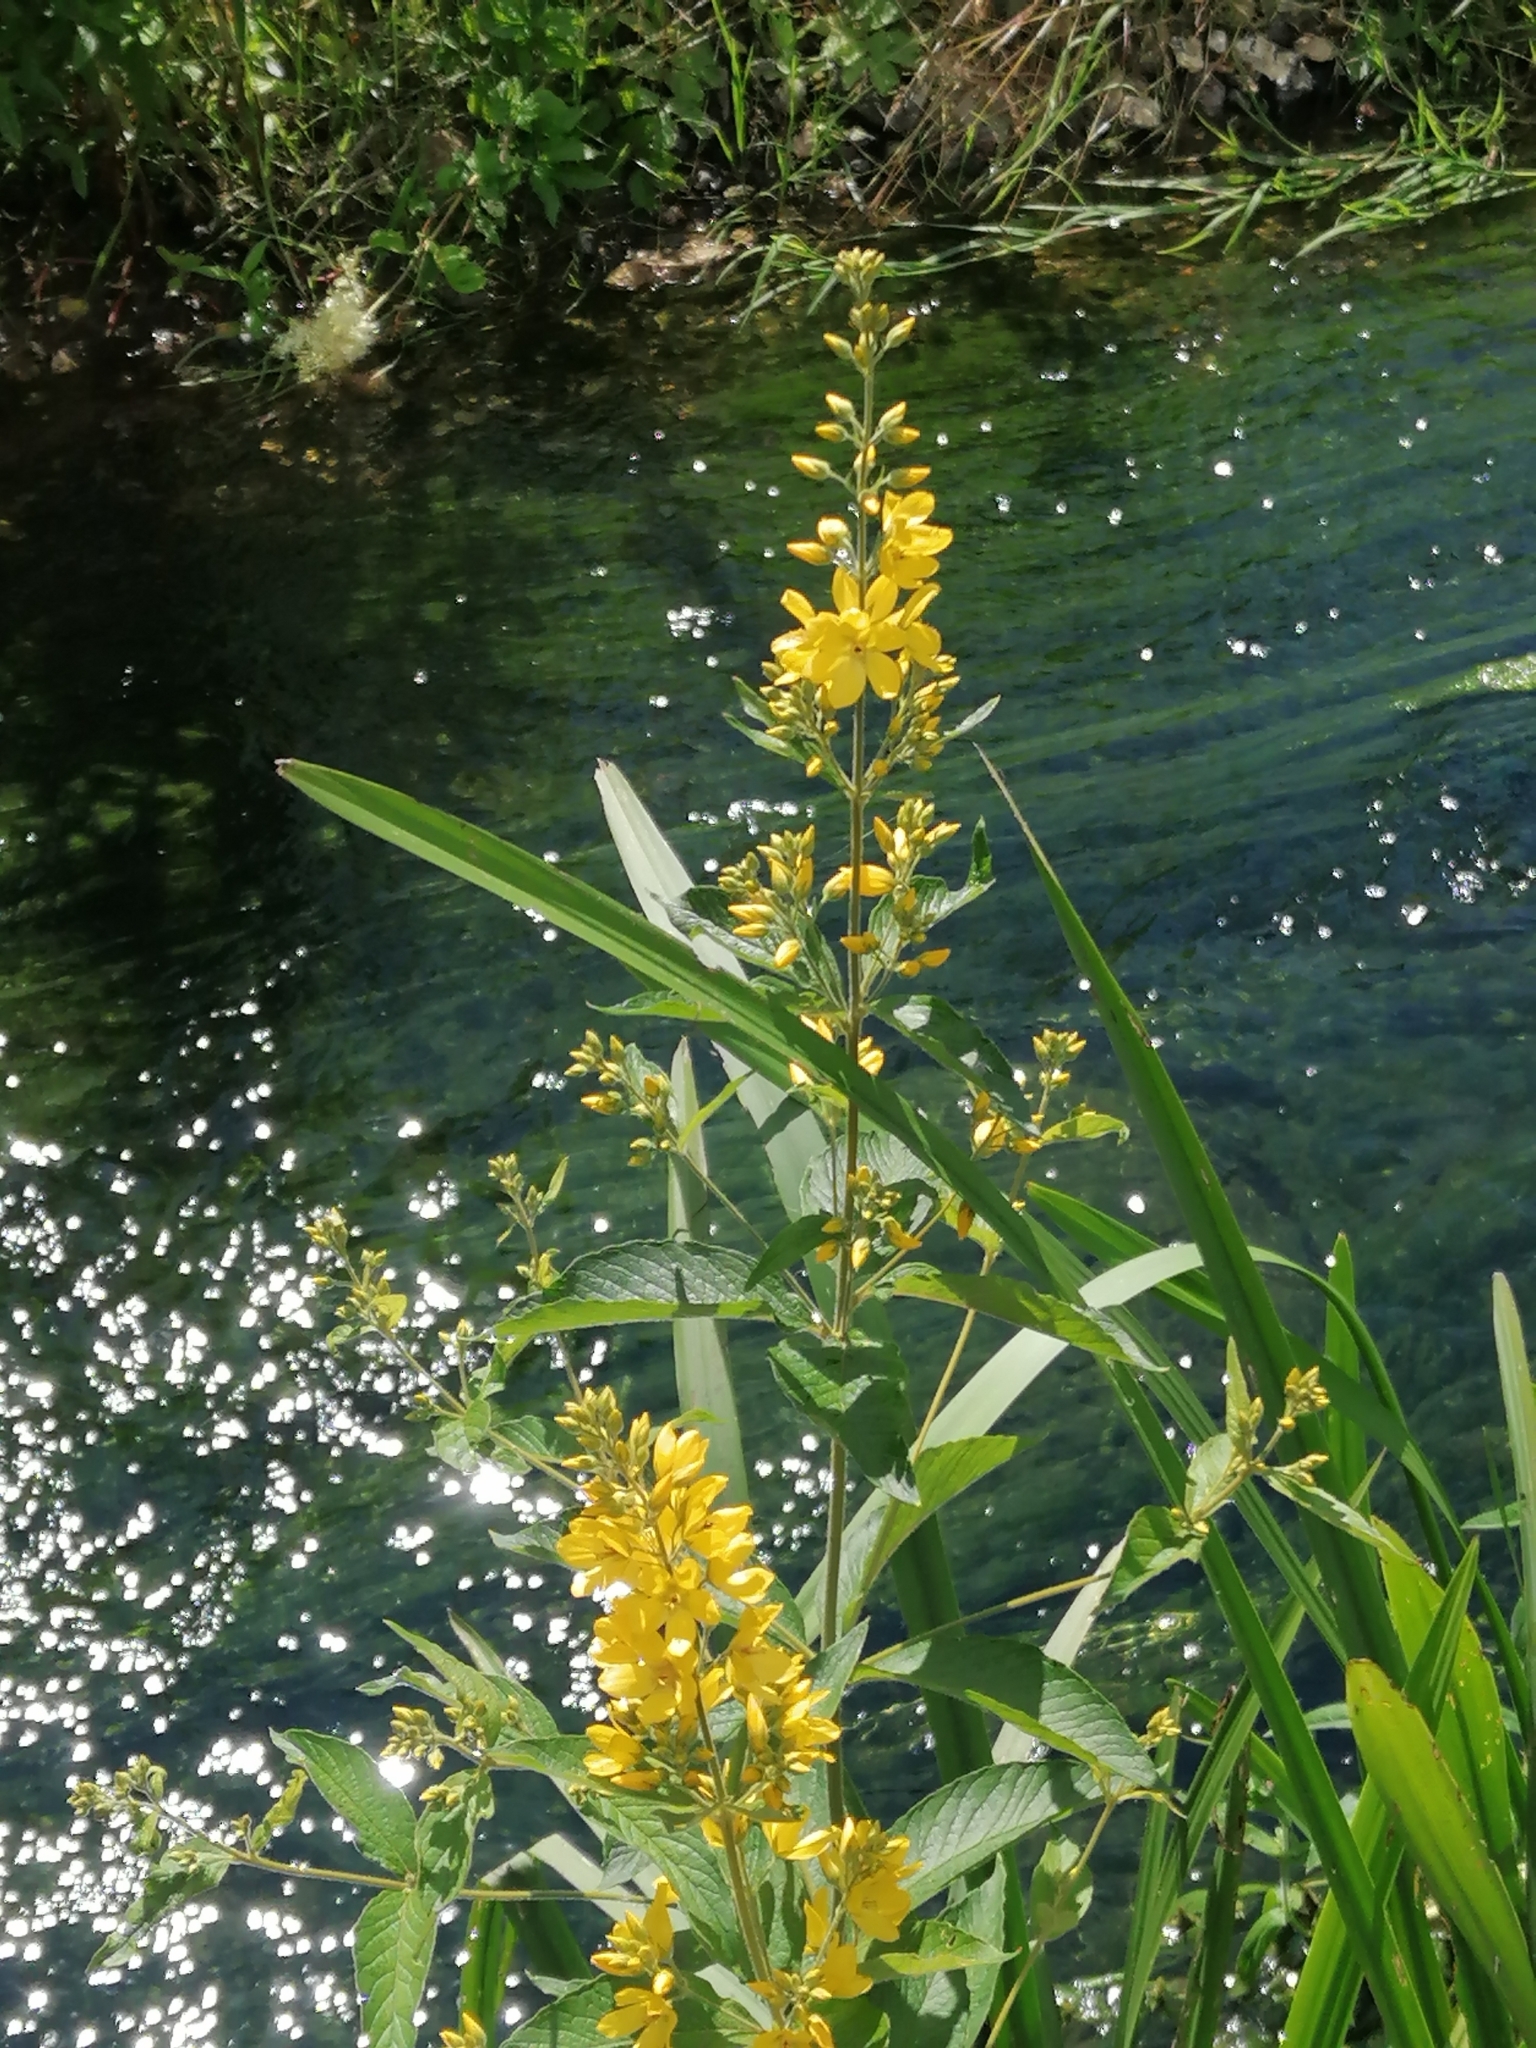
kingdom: Plantae
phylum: Tracheophyta
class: Magnoliopsida
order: Ericales
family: Primulaceae
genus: Lysimachia
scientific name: Lysimachia vulgaris
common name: Yellow loosestrife
